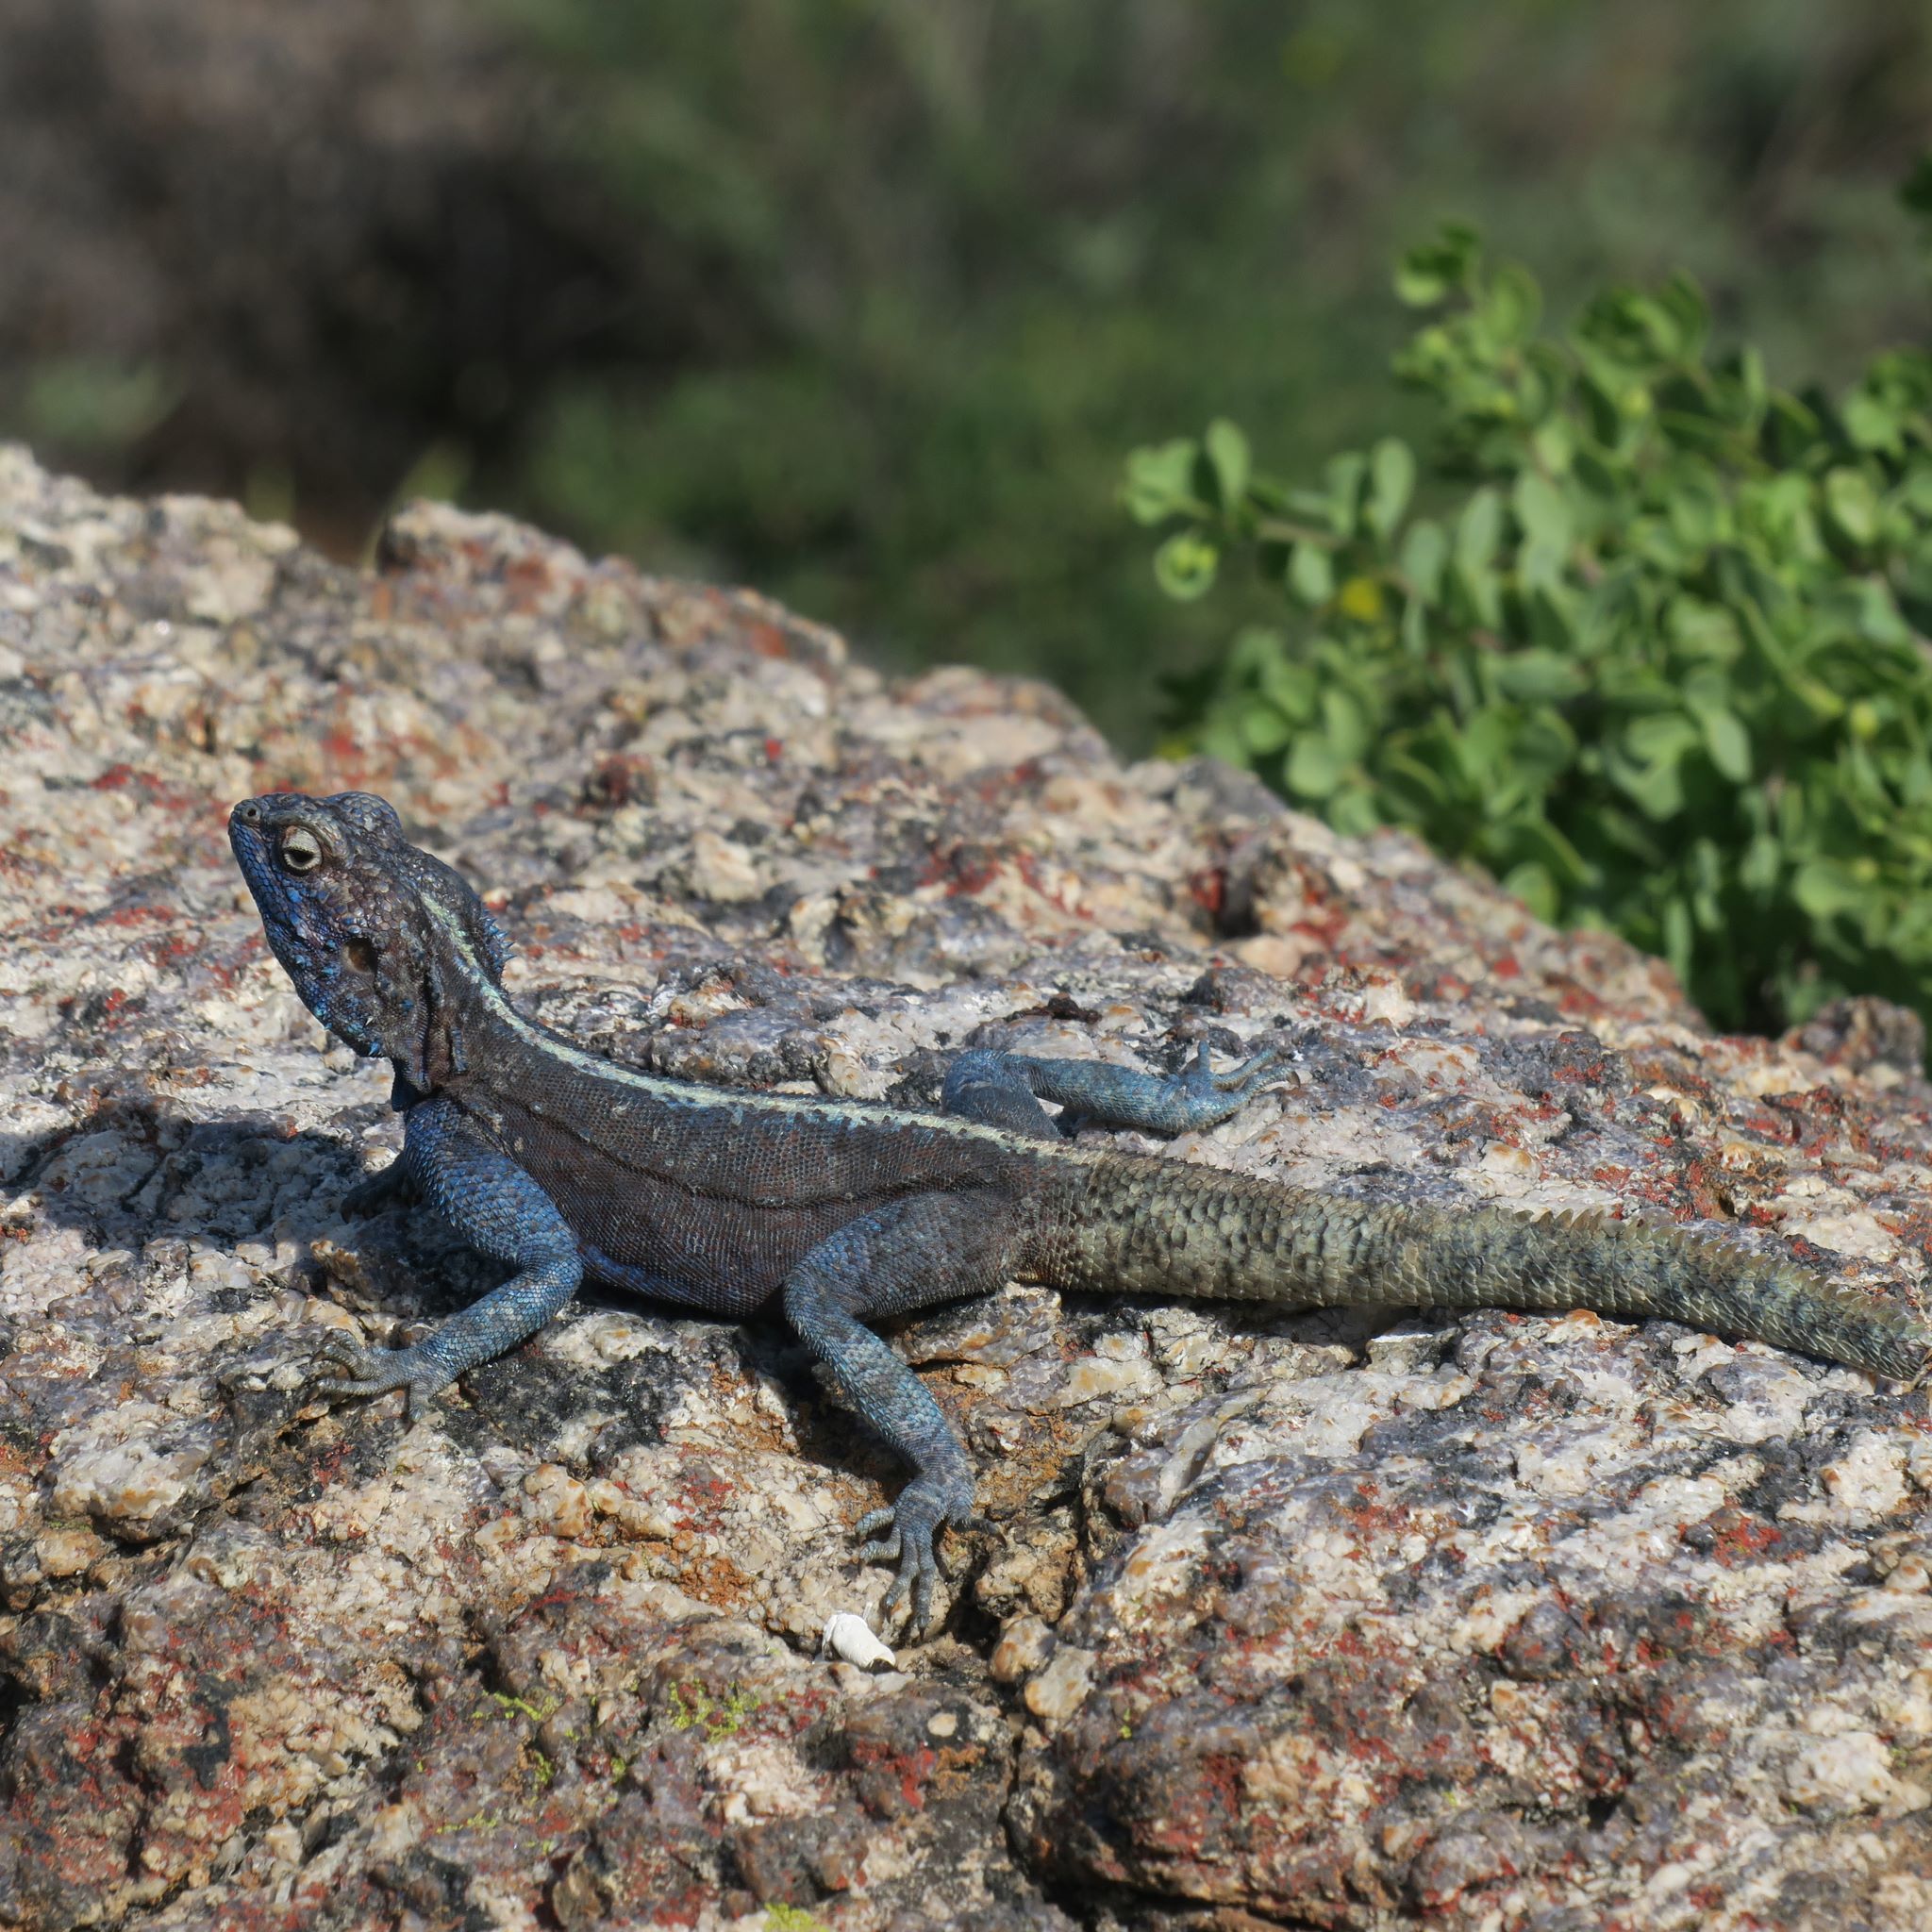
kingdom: Animalia
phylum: Chordata
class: Squamata
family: Agamidae
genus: Agama
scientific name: Agama atra
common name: Southern african rock agama
